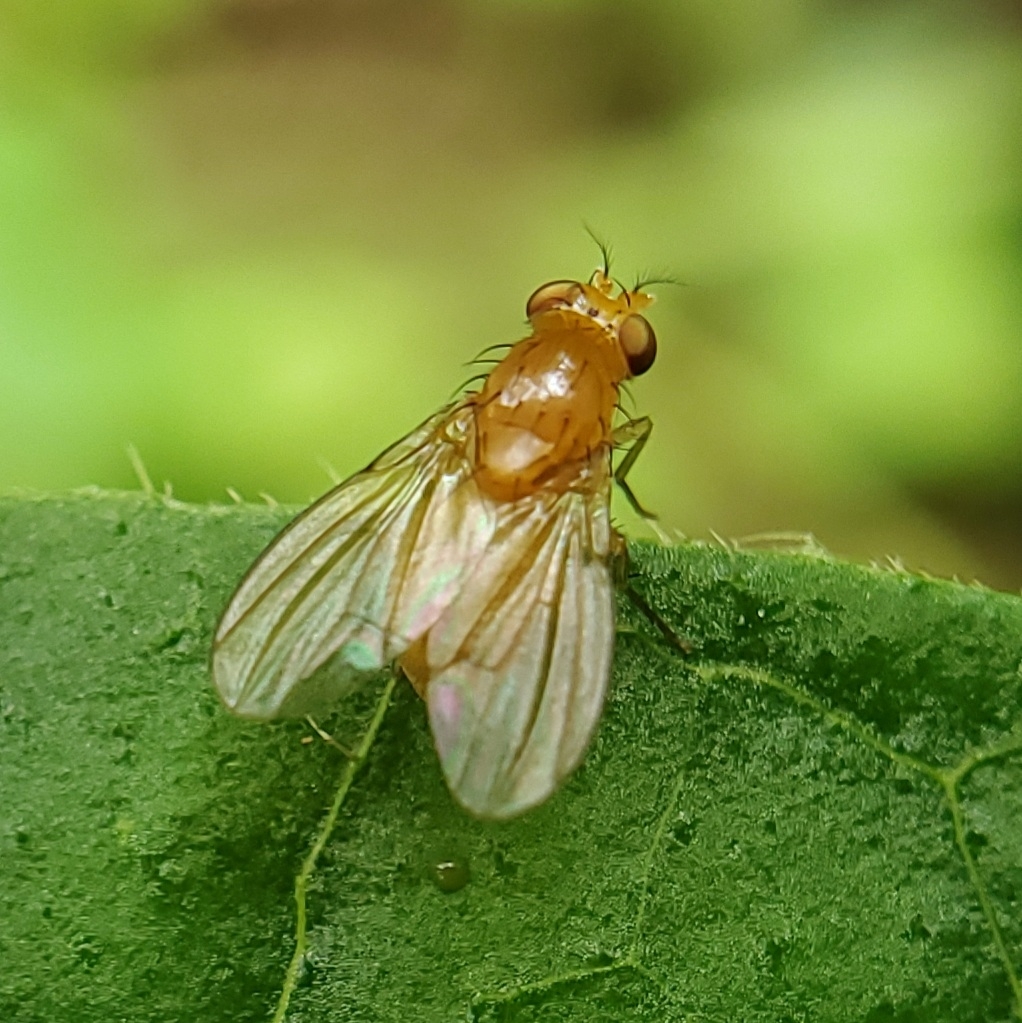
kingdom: Animalia
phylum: Arthropoda
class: Insecta
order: Diptera
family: Lauxaniidae
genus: Neogriphoneura
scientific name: Neogriphoneura sordida
